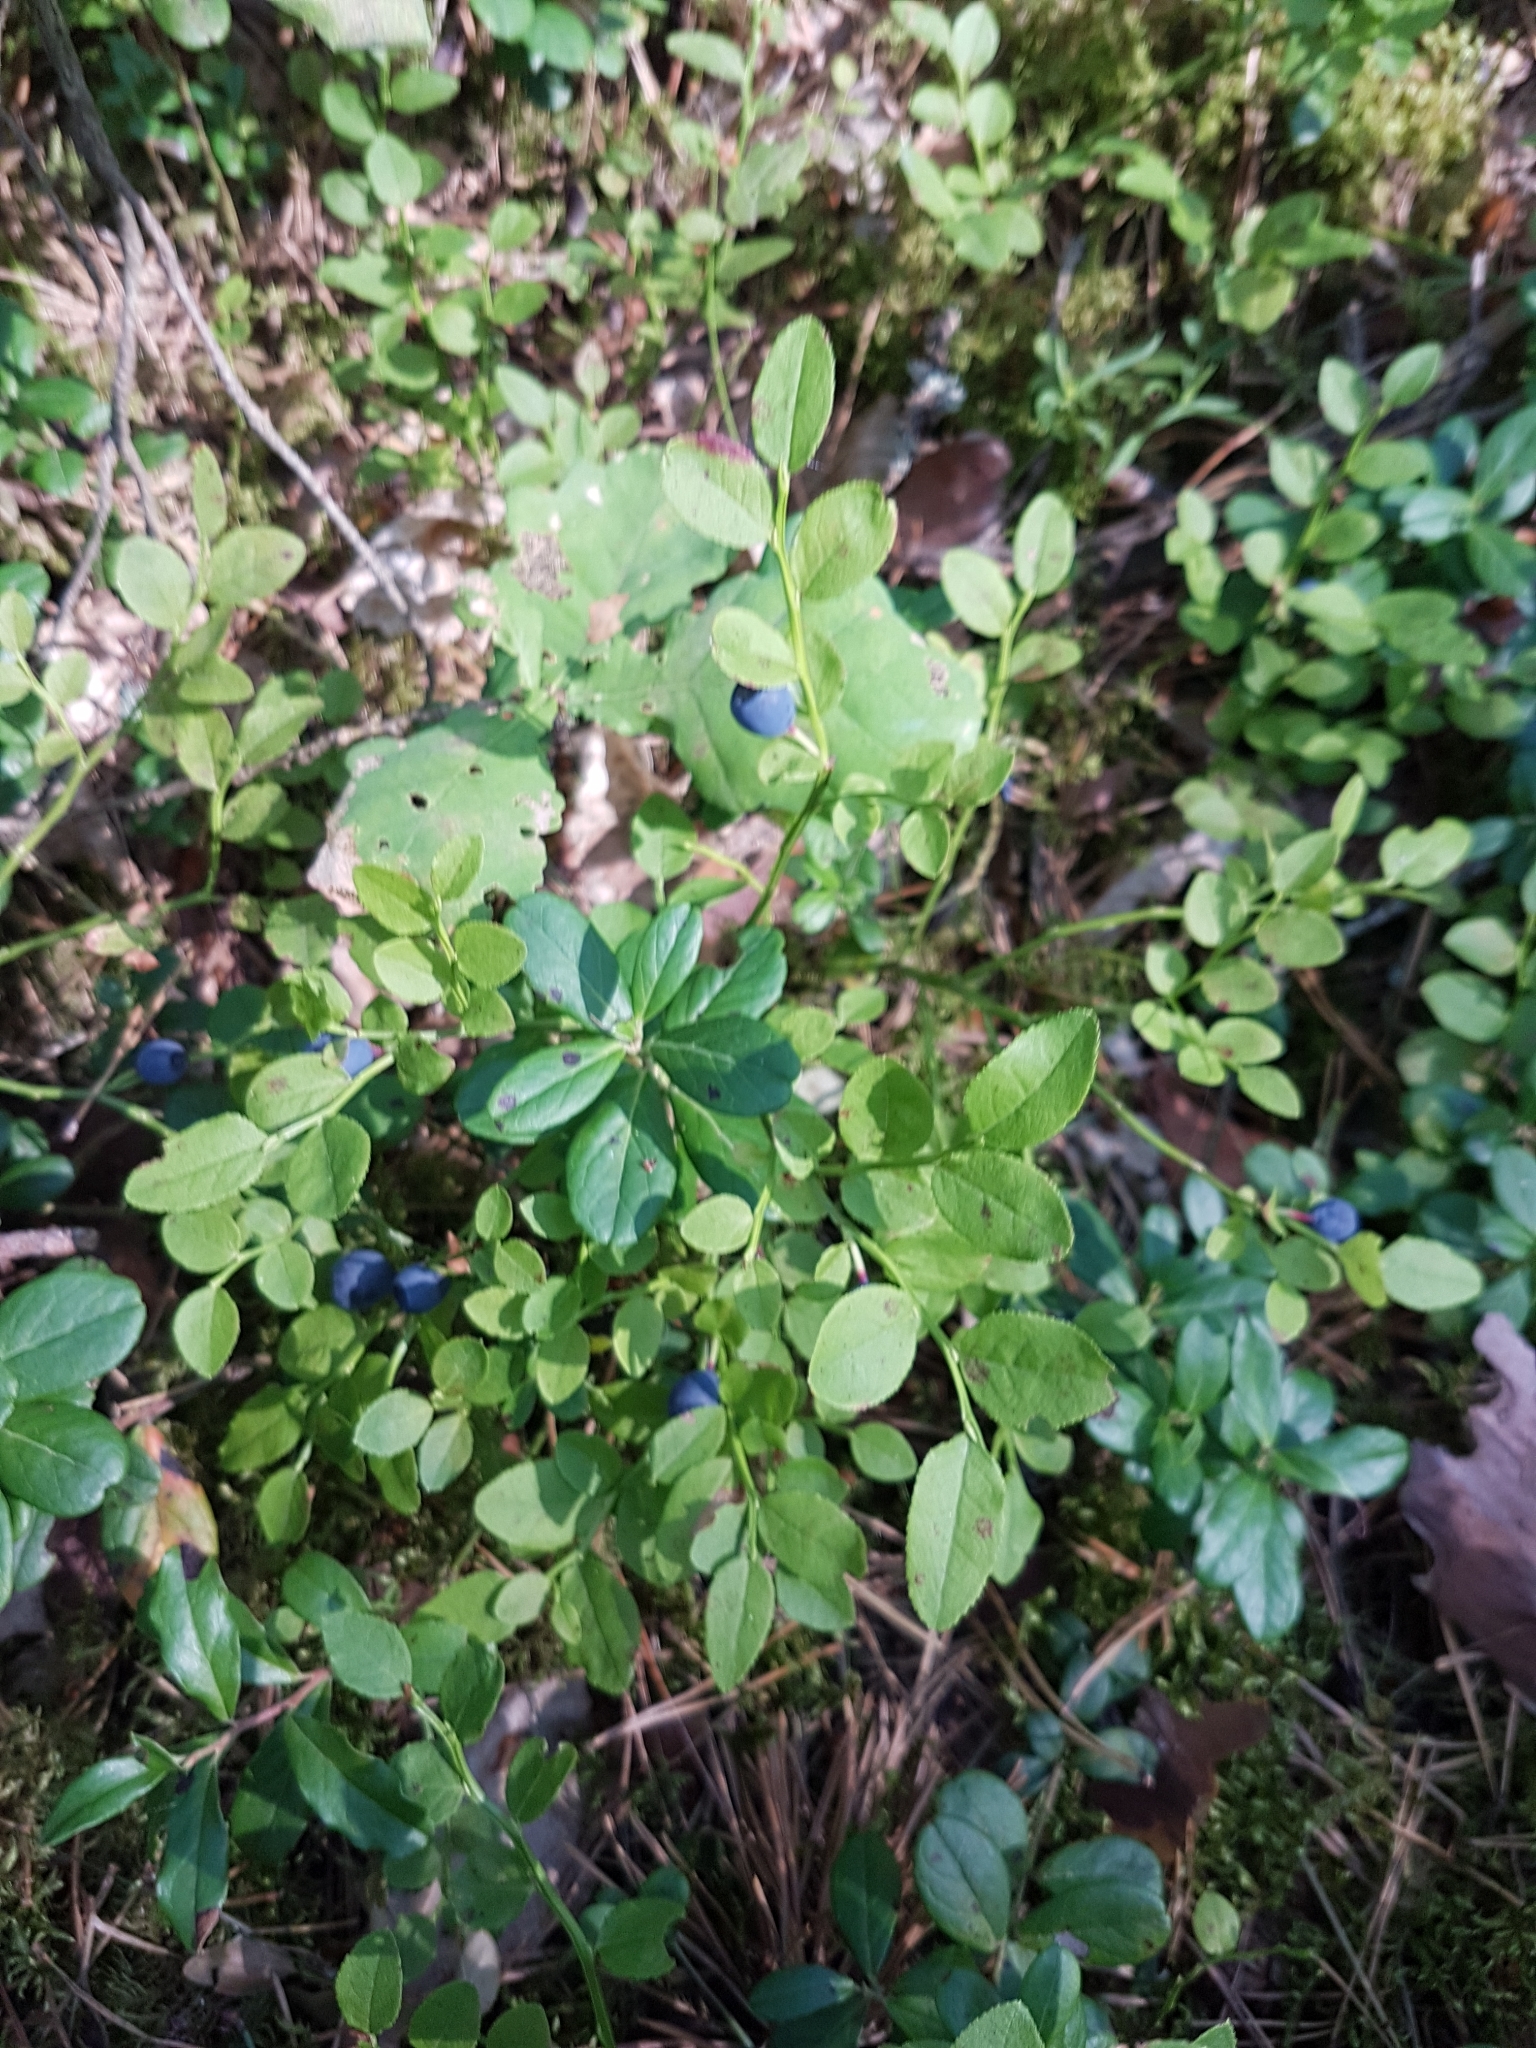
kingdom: Plantae
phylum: Tracheophyta
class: Magnoliopsida
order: Ericales
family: Ericaceae
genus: Vaccinium
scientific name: Vaccinium myrtillus
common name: Bilberry
